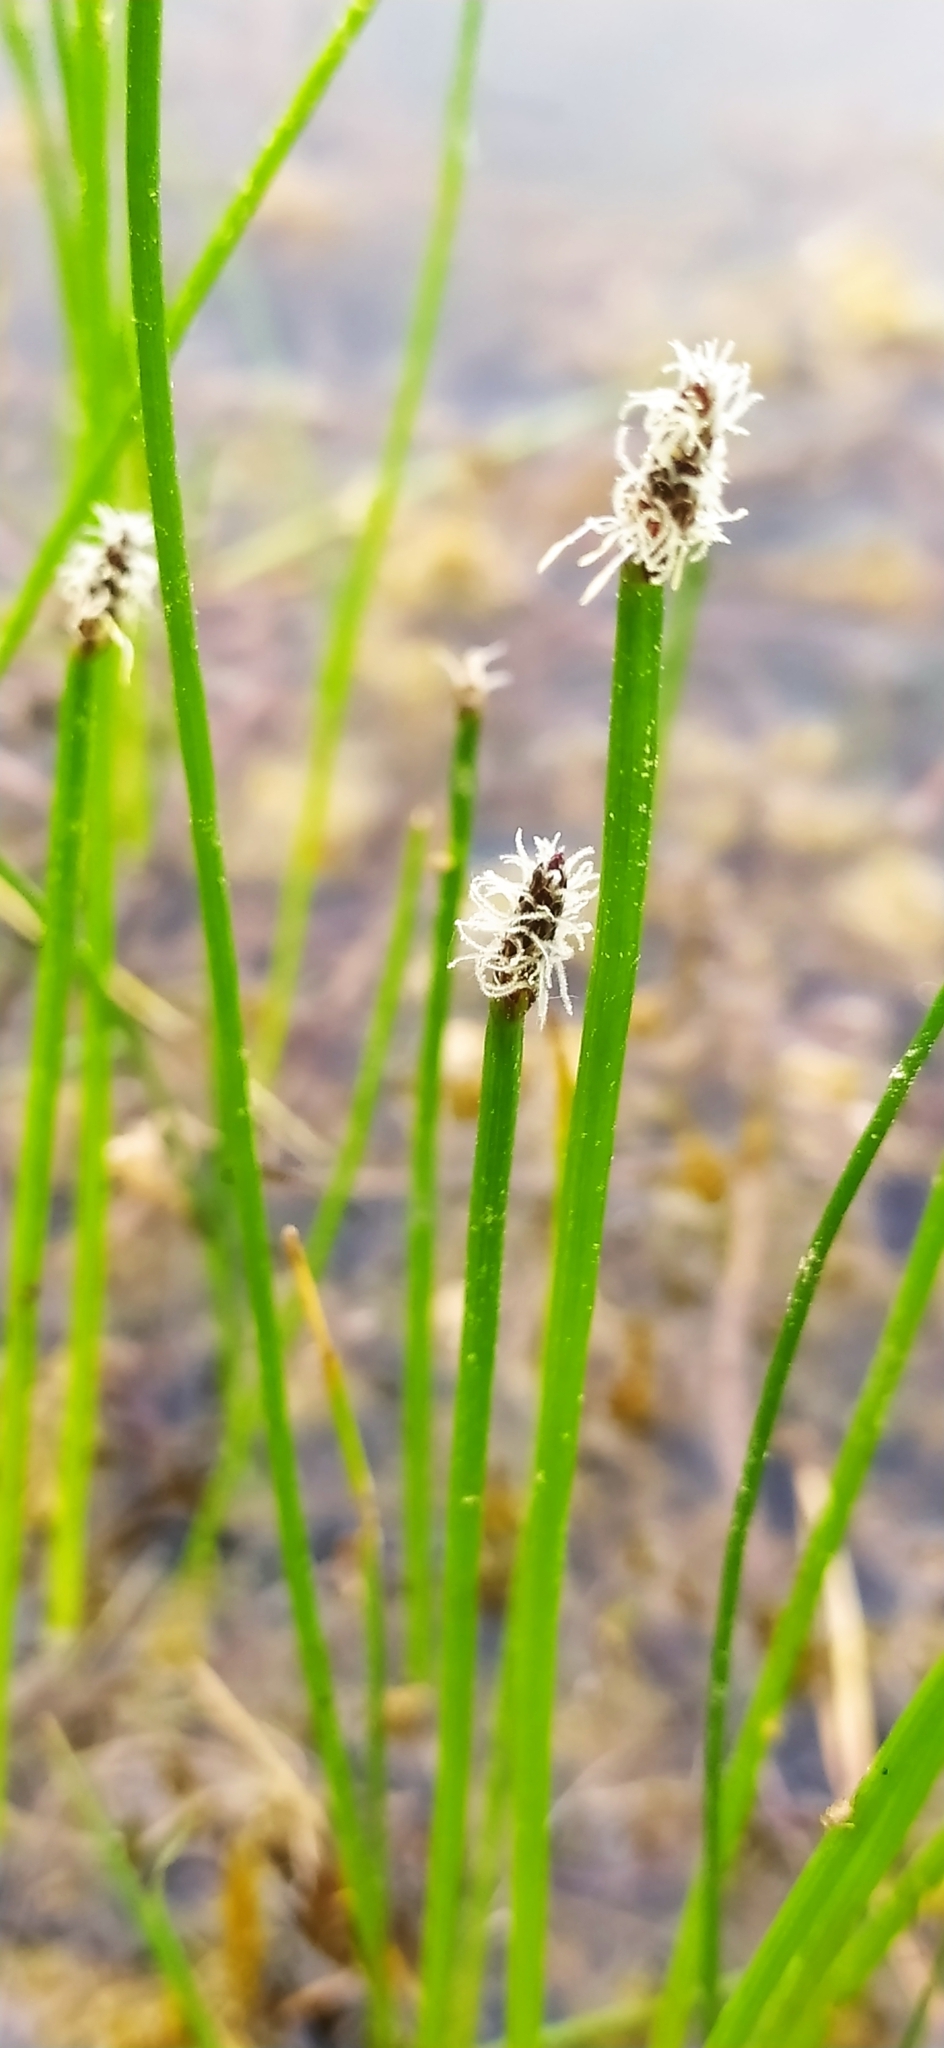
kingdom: Plantae
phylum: Tracheophyta
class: Liliopsida
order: Poales
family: Cyperaceae
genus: Eleocharis
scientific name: Eleocharis palustris
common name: Common spike-rush
